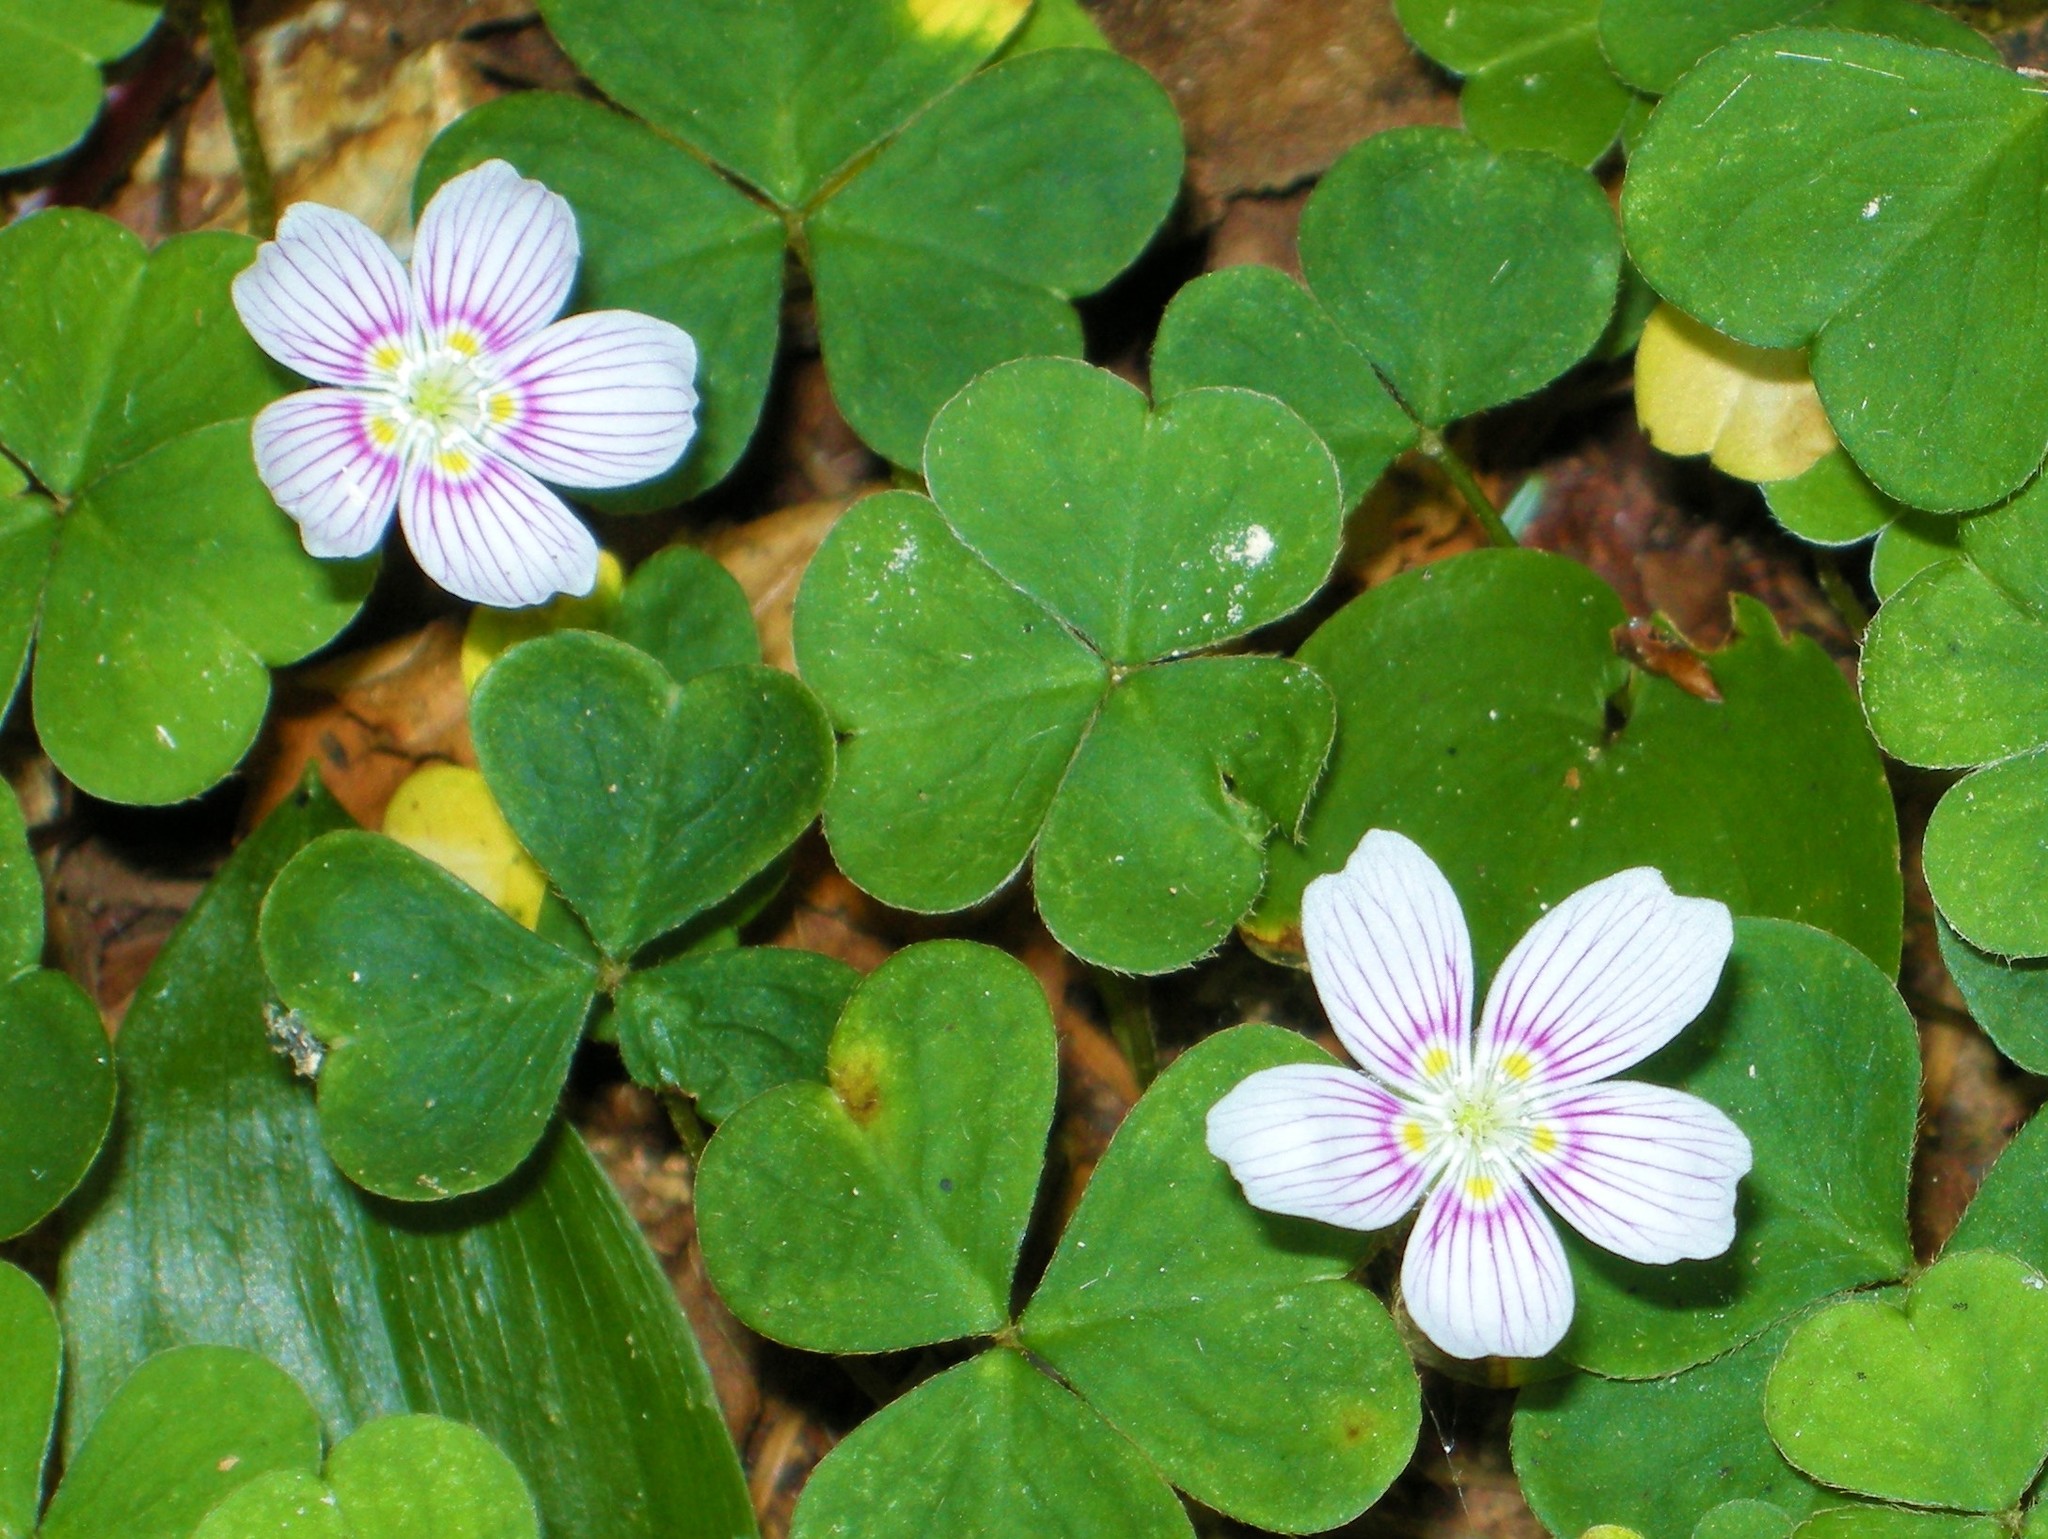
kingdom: Plantae
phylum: Tracheophyta
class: Magnoliopsida
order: Oxalidales
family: Oxalidaceae
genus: Oxalis
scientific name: Oxalis montana
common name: American wood-sorrel
